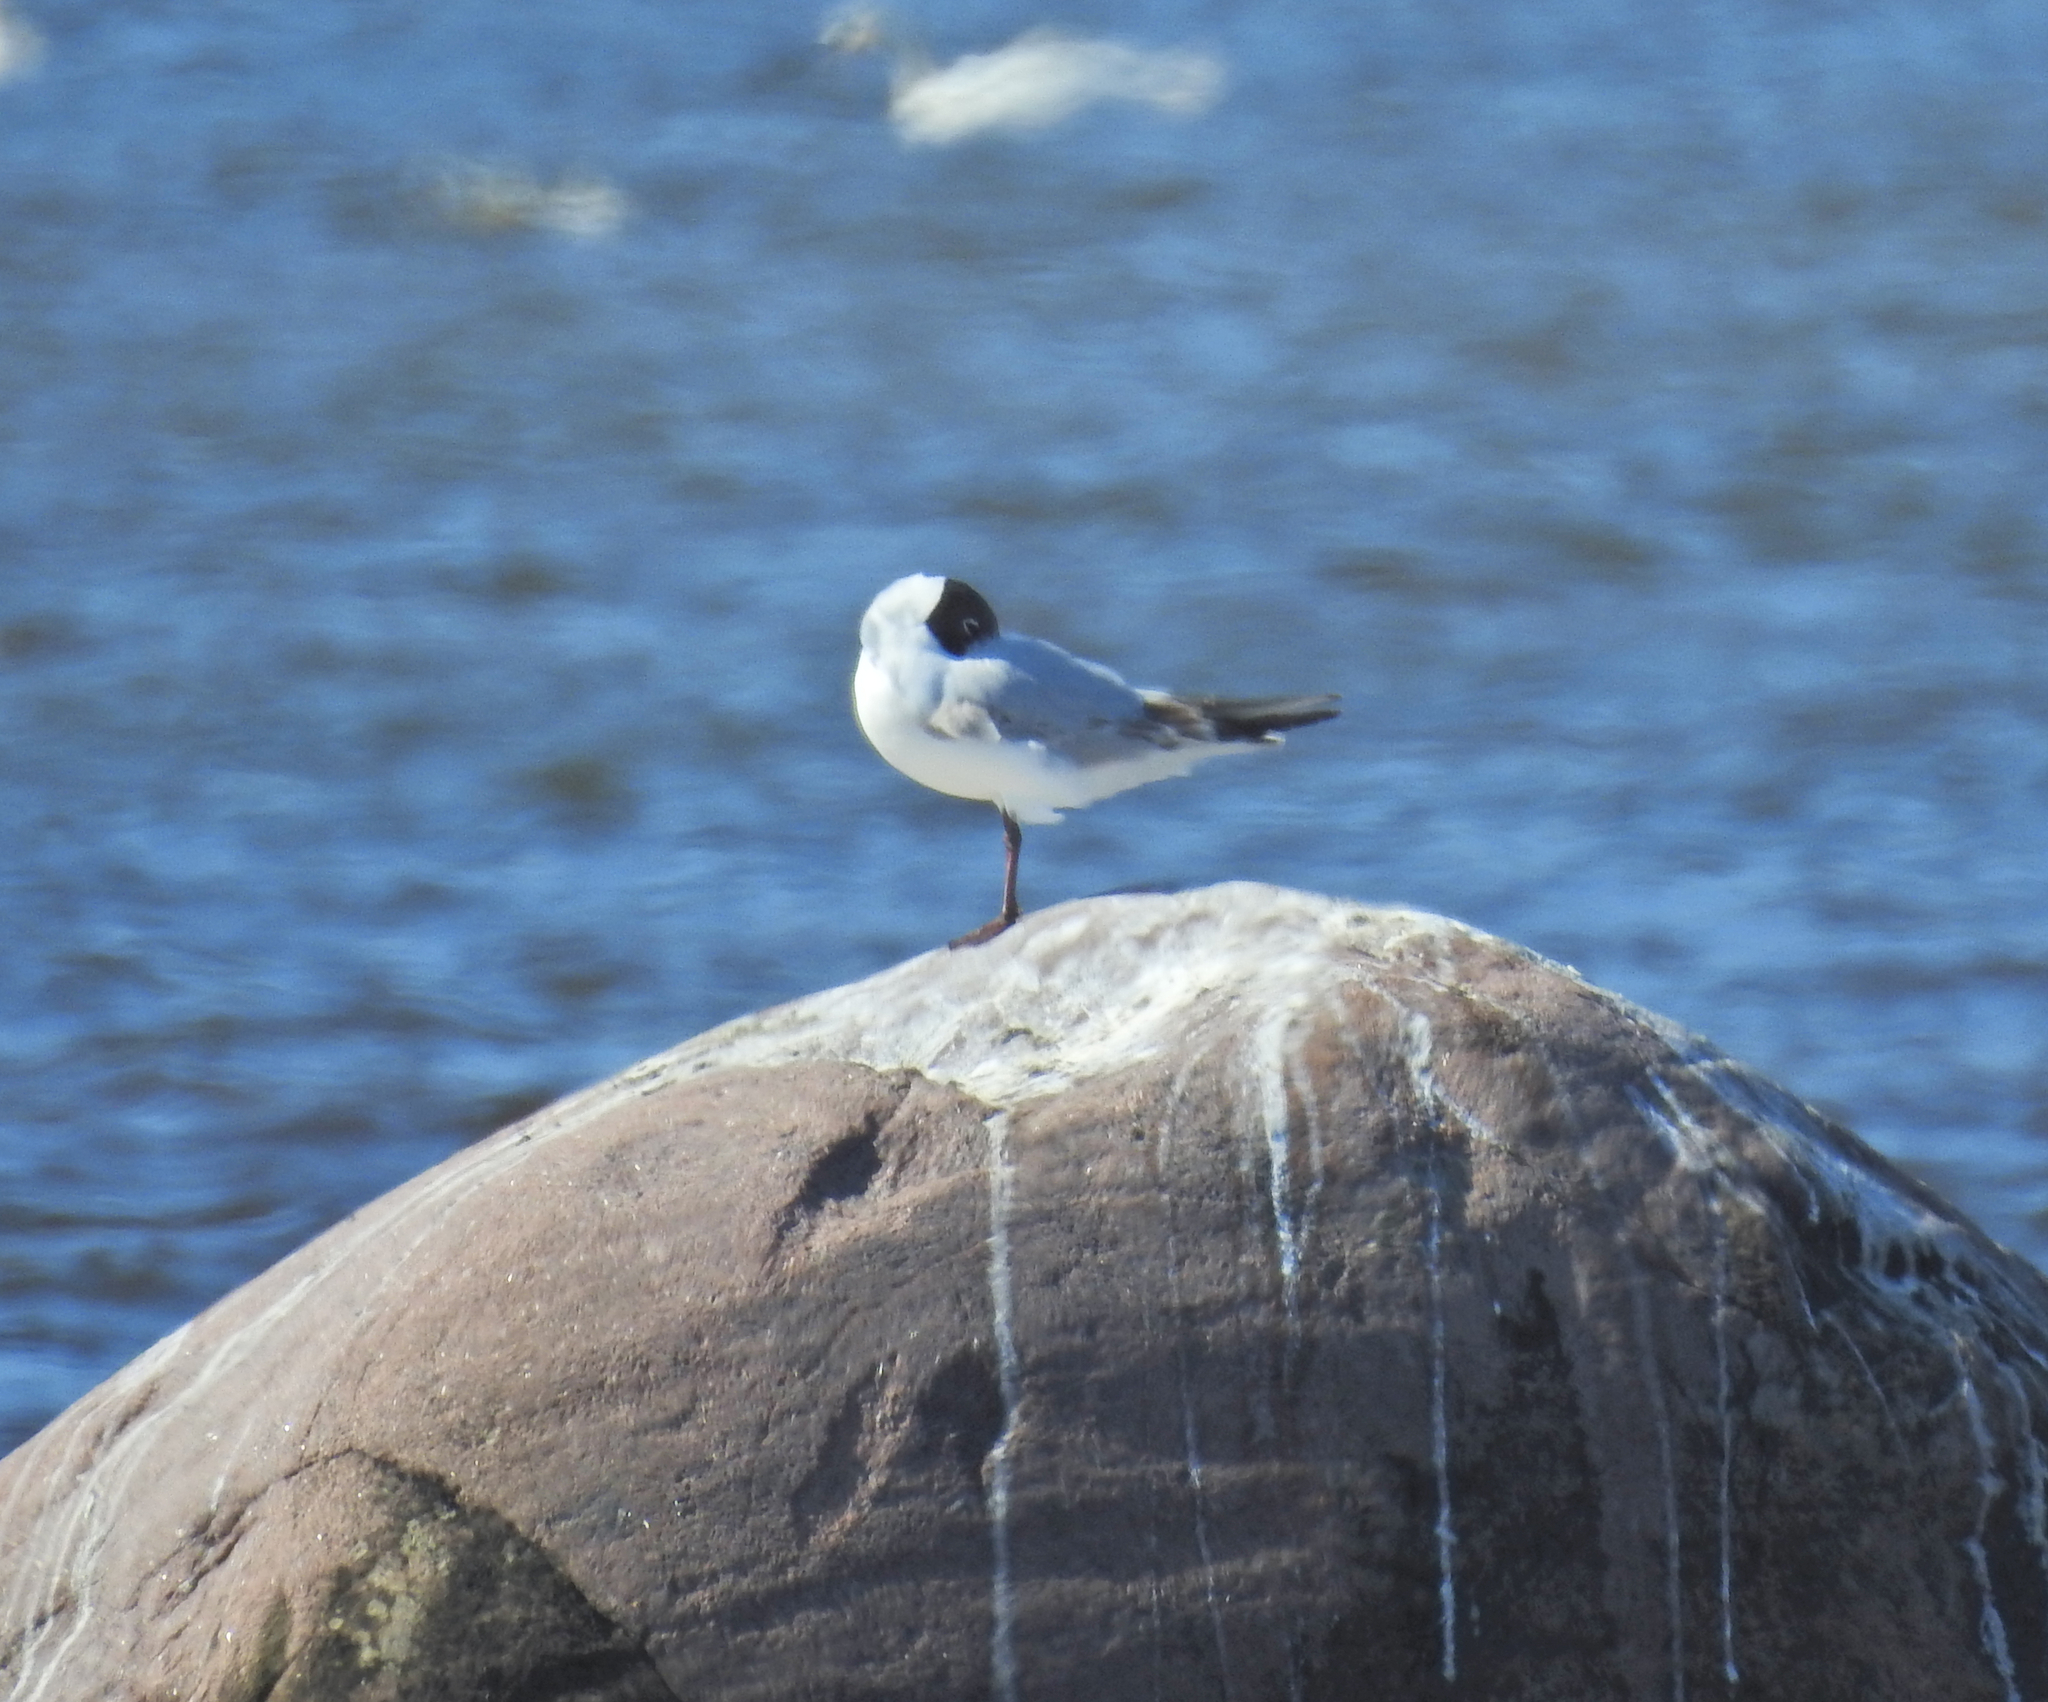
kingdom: Animalia
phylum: Chordata
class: Aves
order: Charadriiformes
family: Laridae
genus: Chroicocephalus
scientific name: Chroicocephalus ridibundus
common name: Black-headed gull
